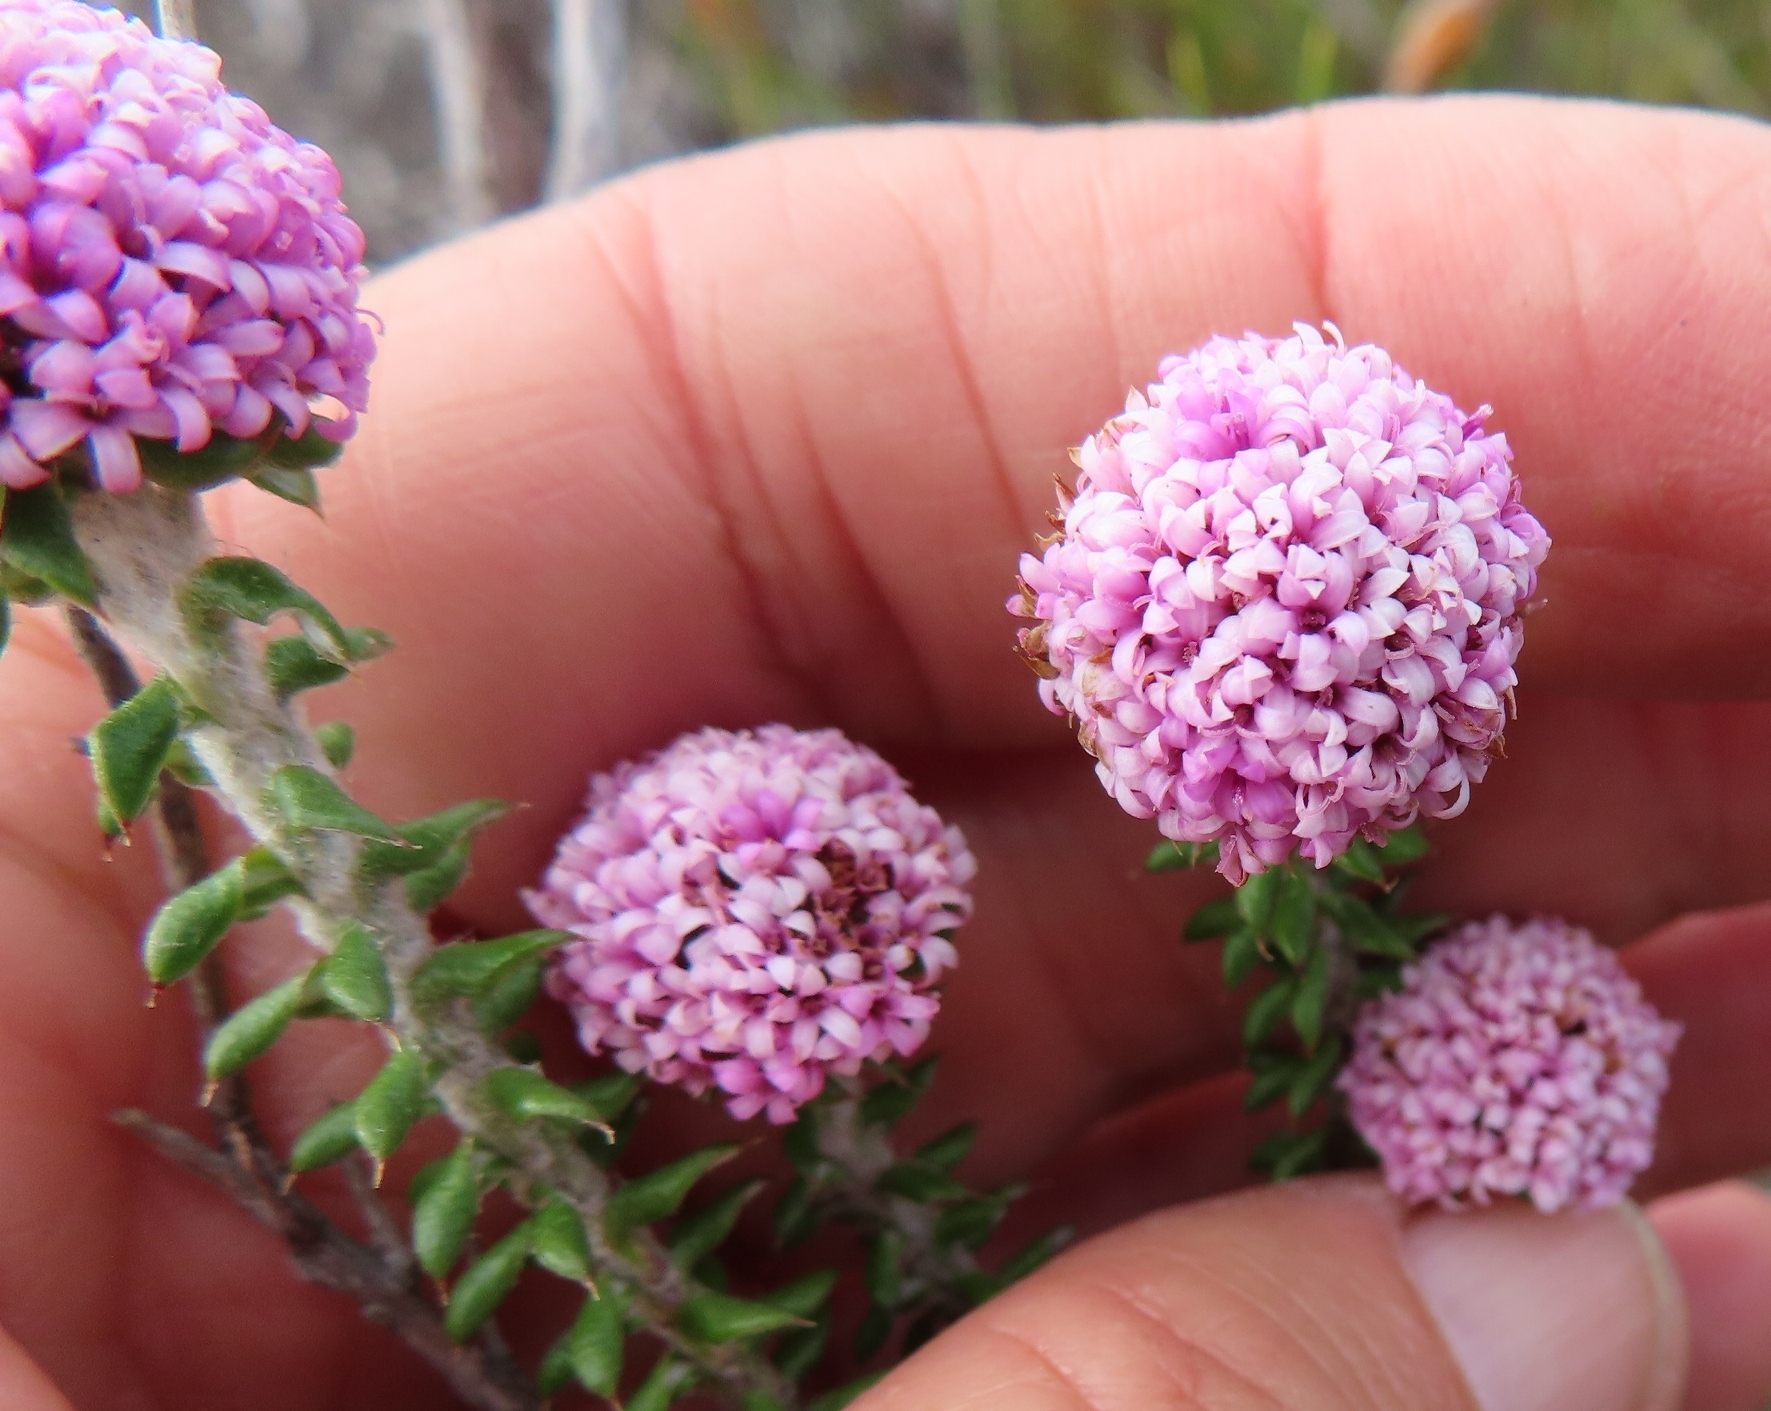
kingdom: Plantae
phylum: Tracheophyta
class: Magnoliopsida
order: Asterales
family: Asteraceae
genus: Stoebe
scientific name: Stoebe cyathuloides
